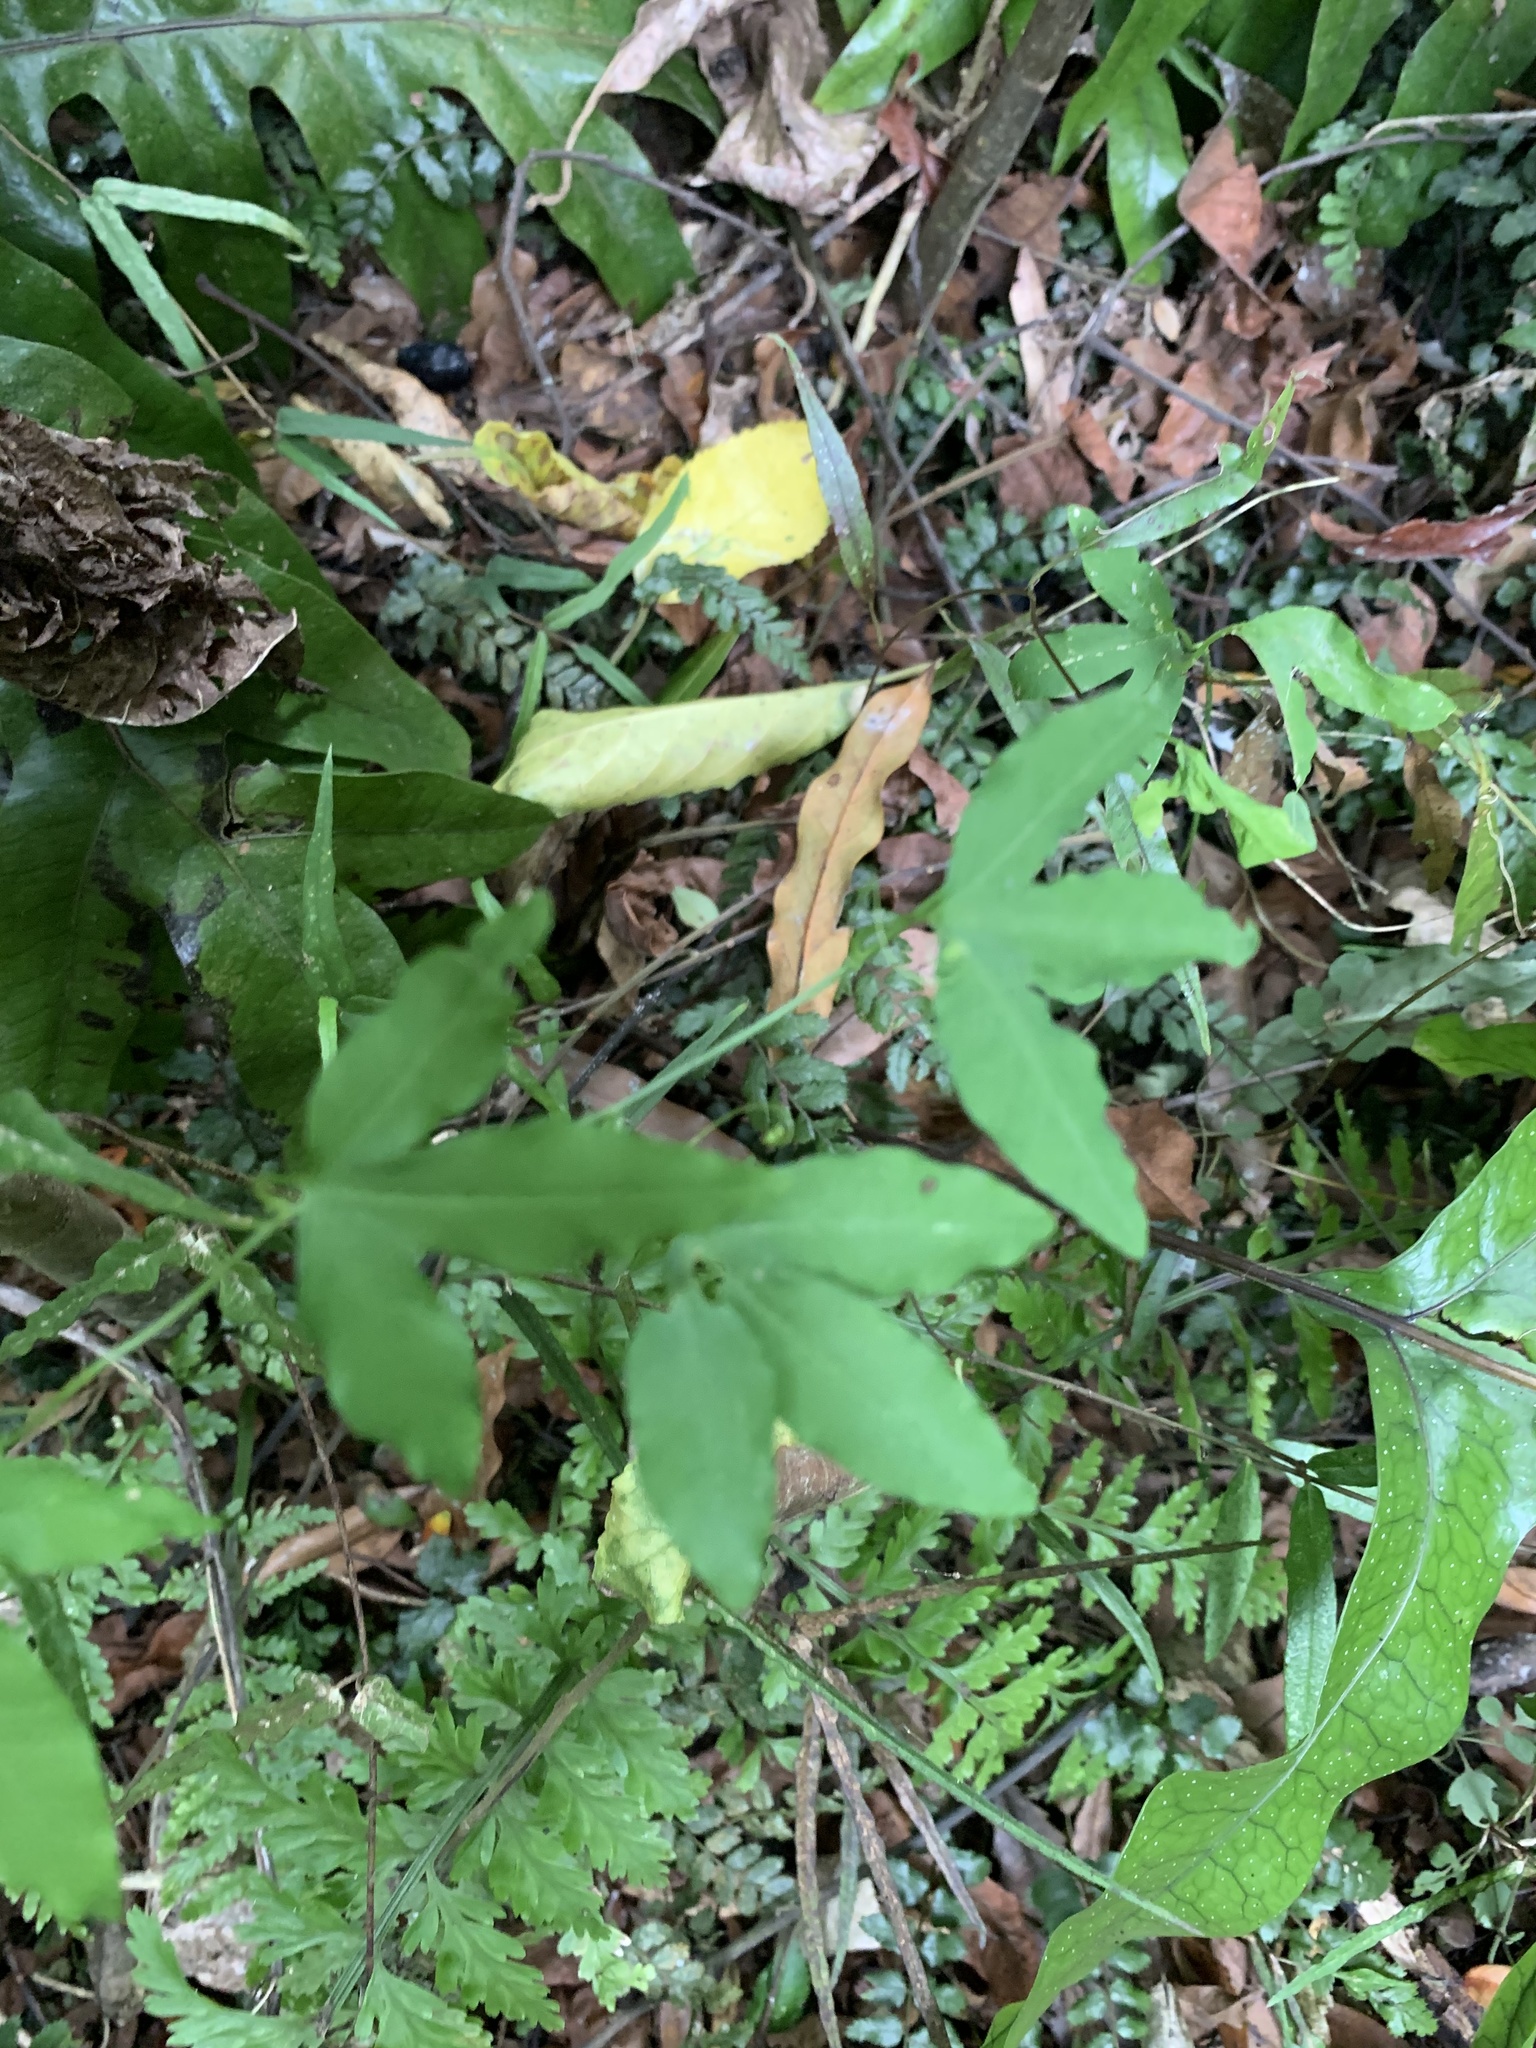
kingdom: Plantae
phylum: Tracheophyta
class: Magnoliopsida
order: Malpighiales
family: Passifloraceae
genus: Passiflora
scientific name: Passiflora tripartita
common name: Banana poka
